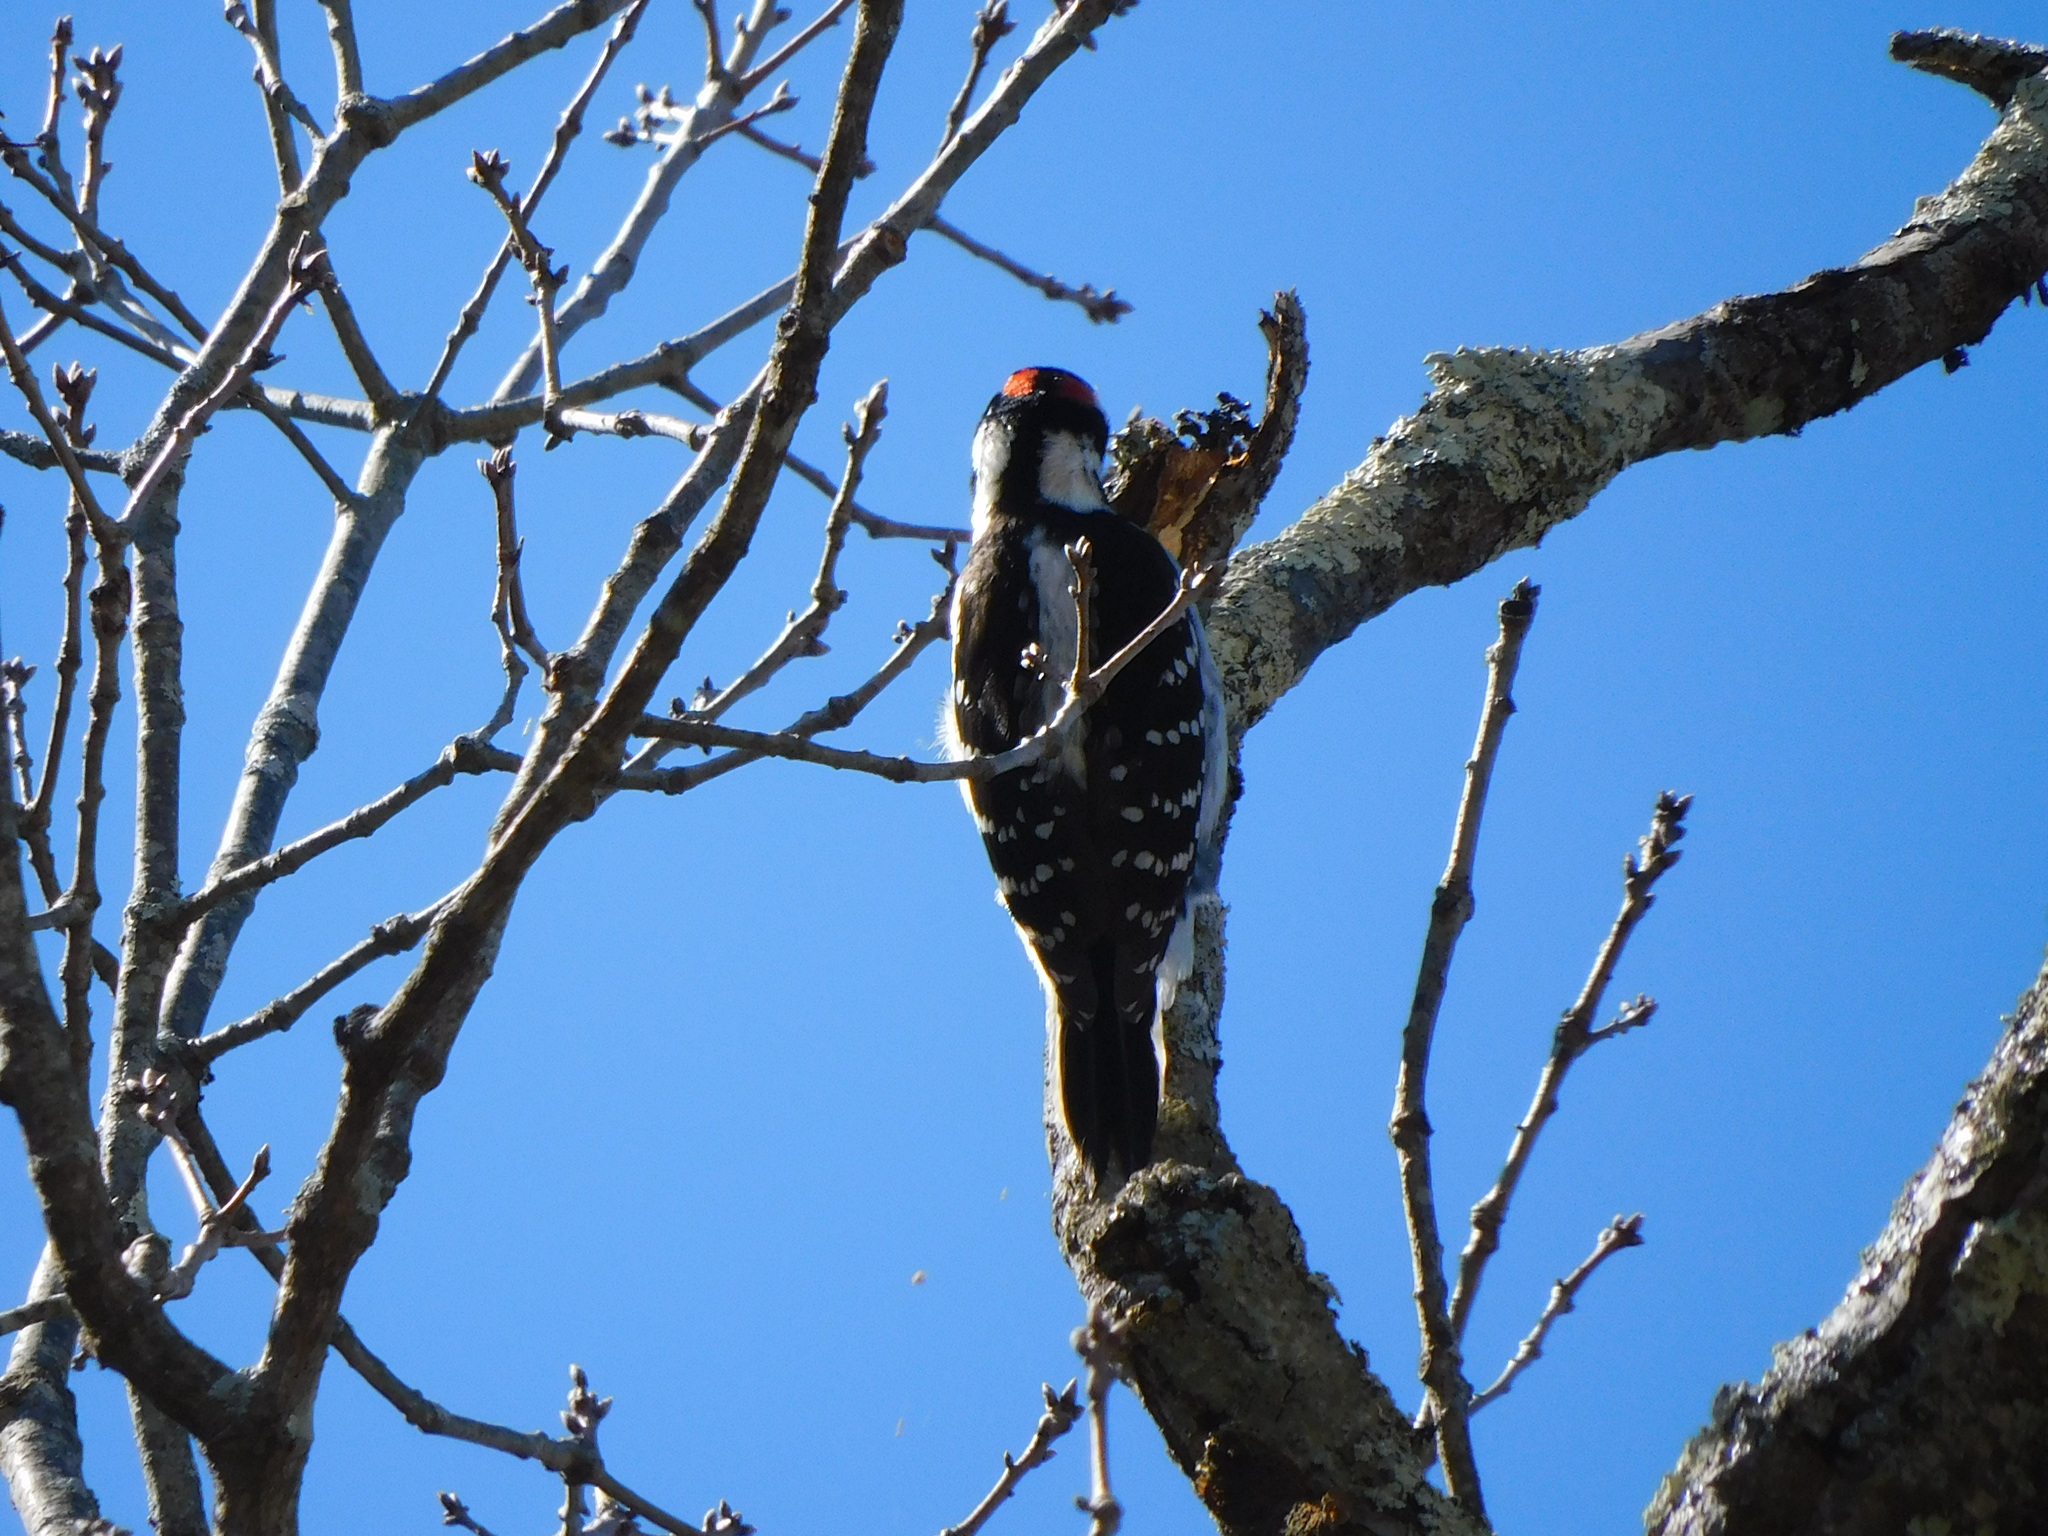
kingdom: Animalia
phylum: Chordata
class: Aves
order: Piciformes
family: Picidae
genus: Leuconotopicus
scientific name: Leuconotopicus villosus
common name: Hairy woodpecker
